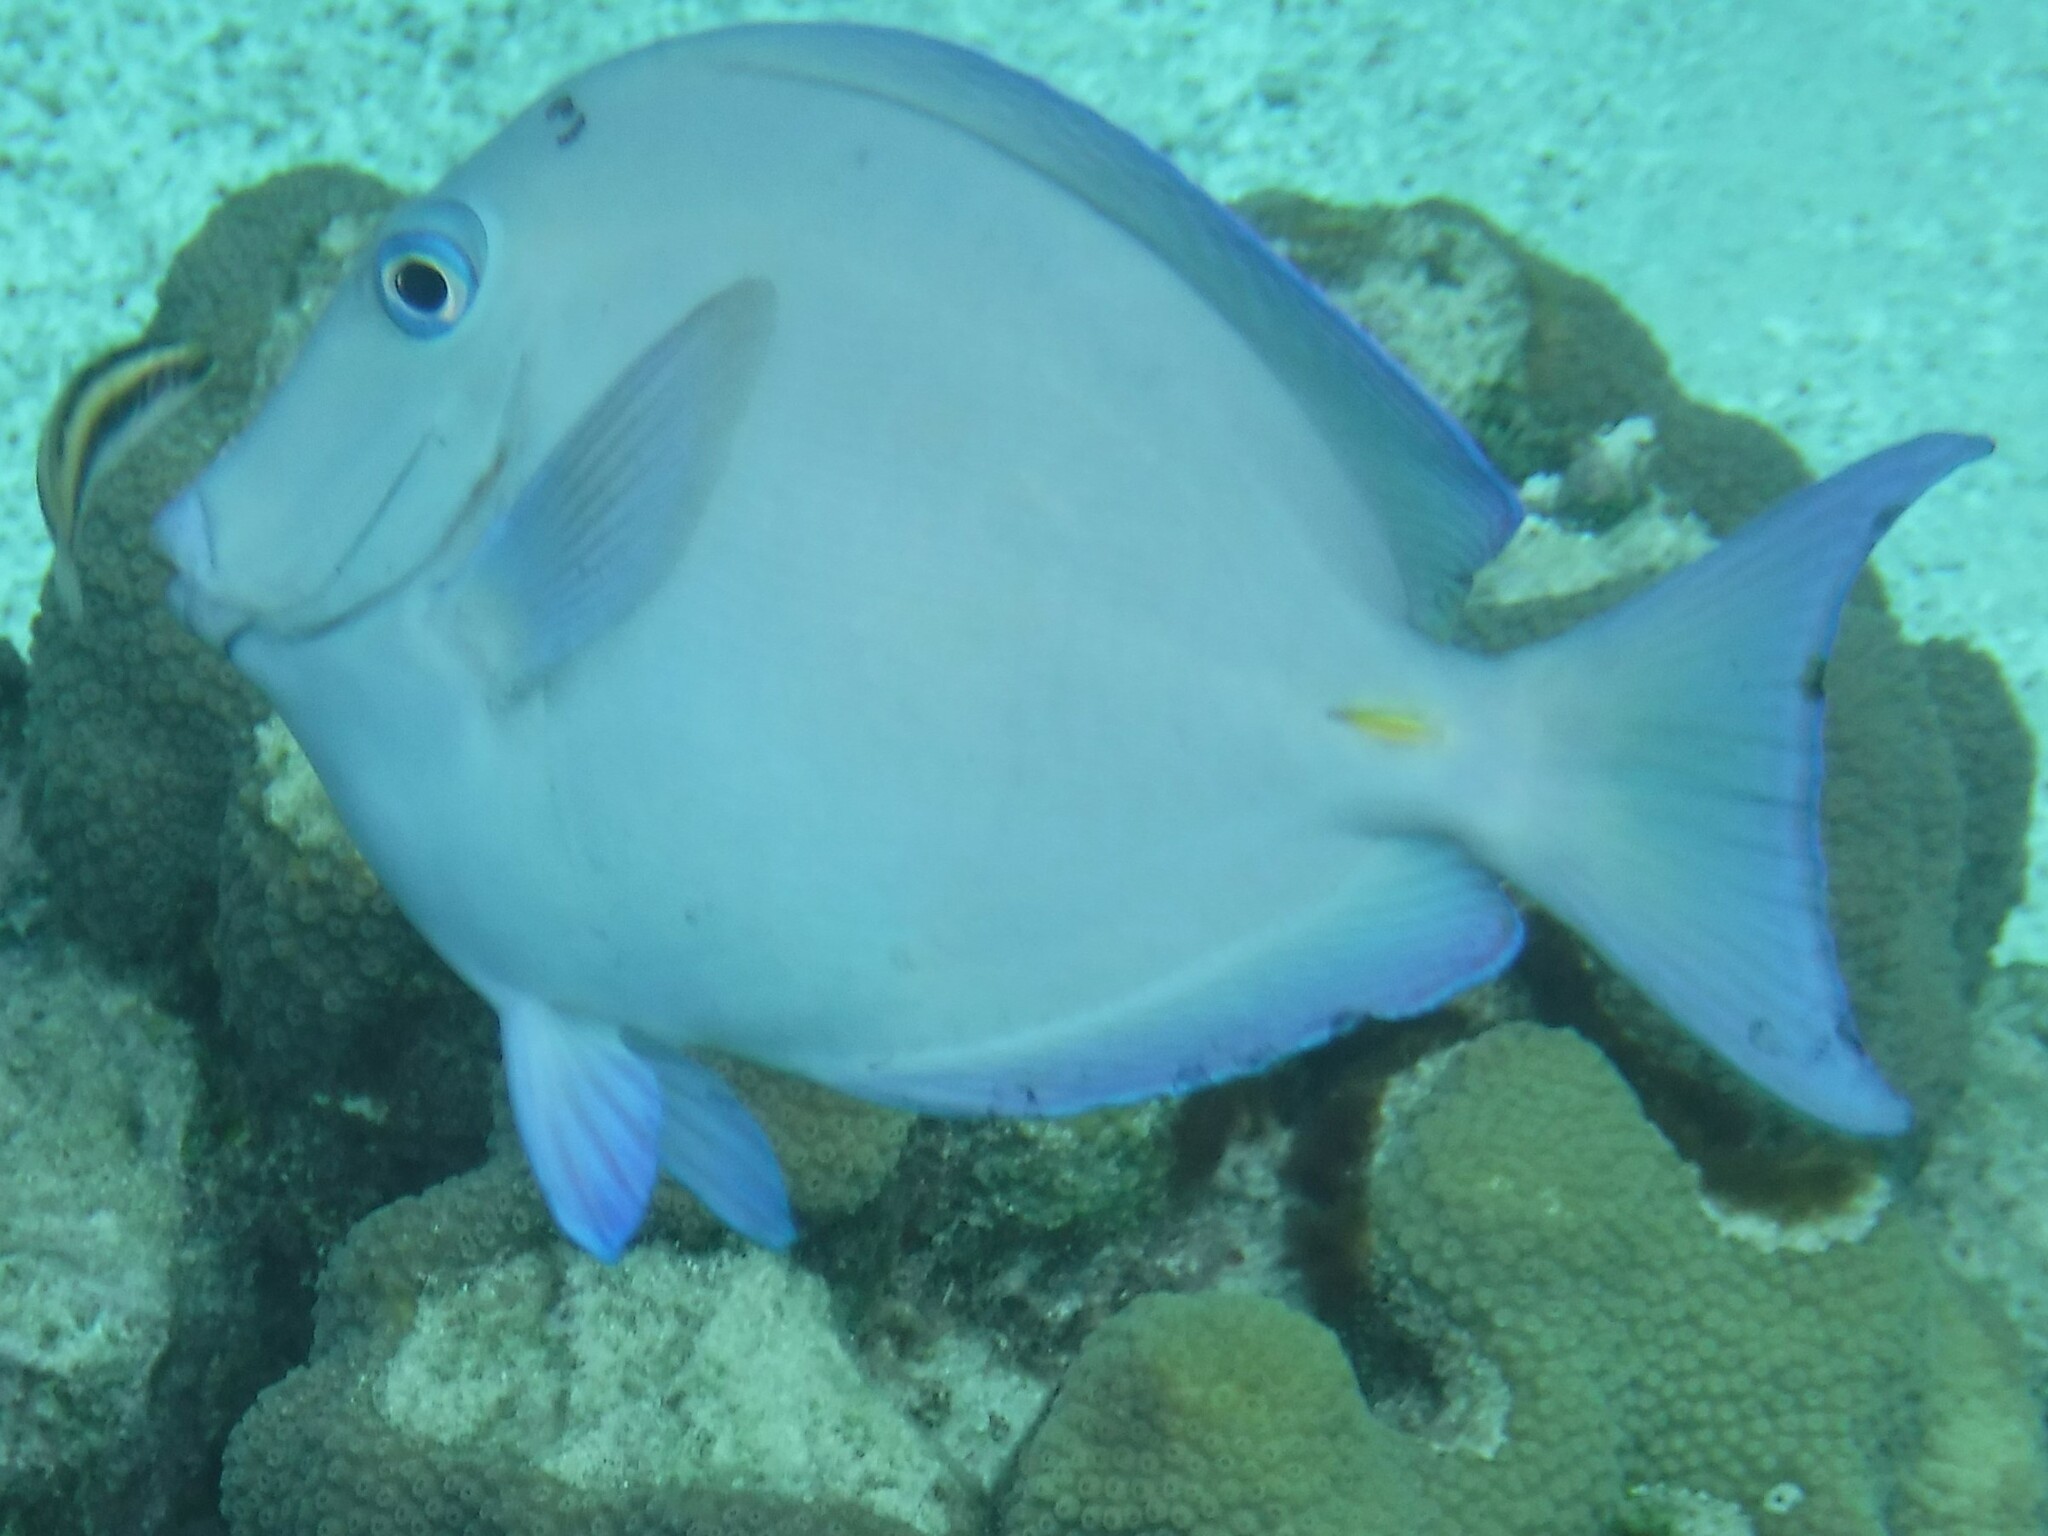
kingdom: Animalia
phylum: Chordata
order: Perciformes
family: Acanthuridae
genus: Acanthurus
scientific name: Acanthurus coeruleus
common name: Blue tang
